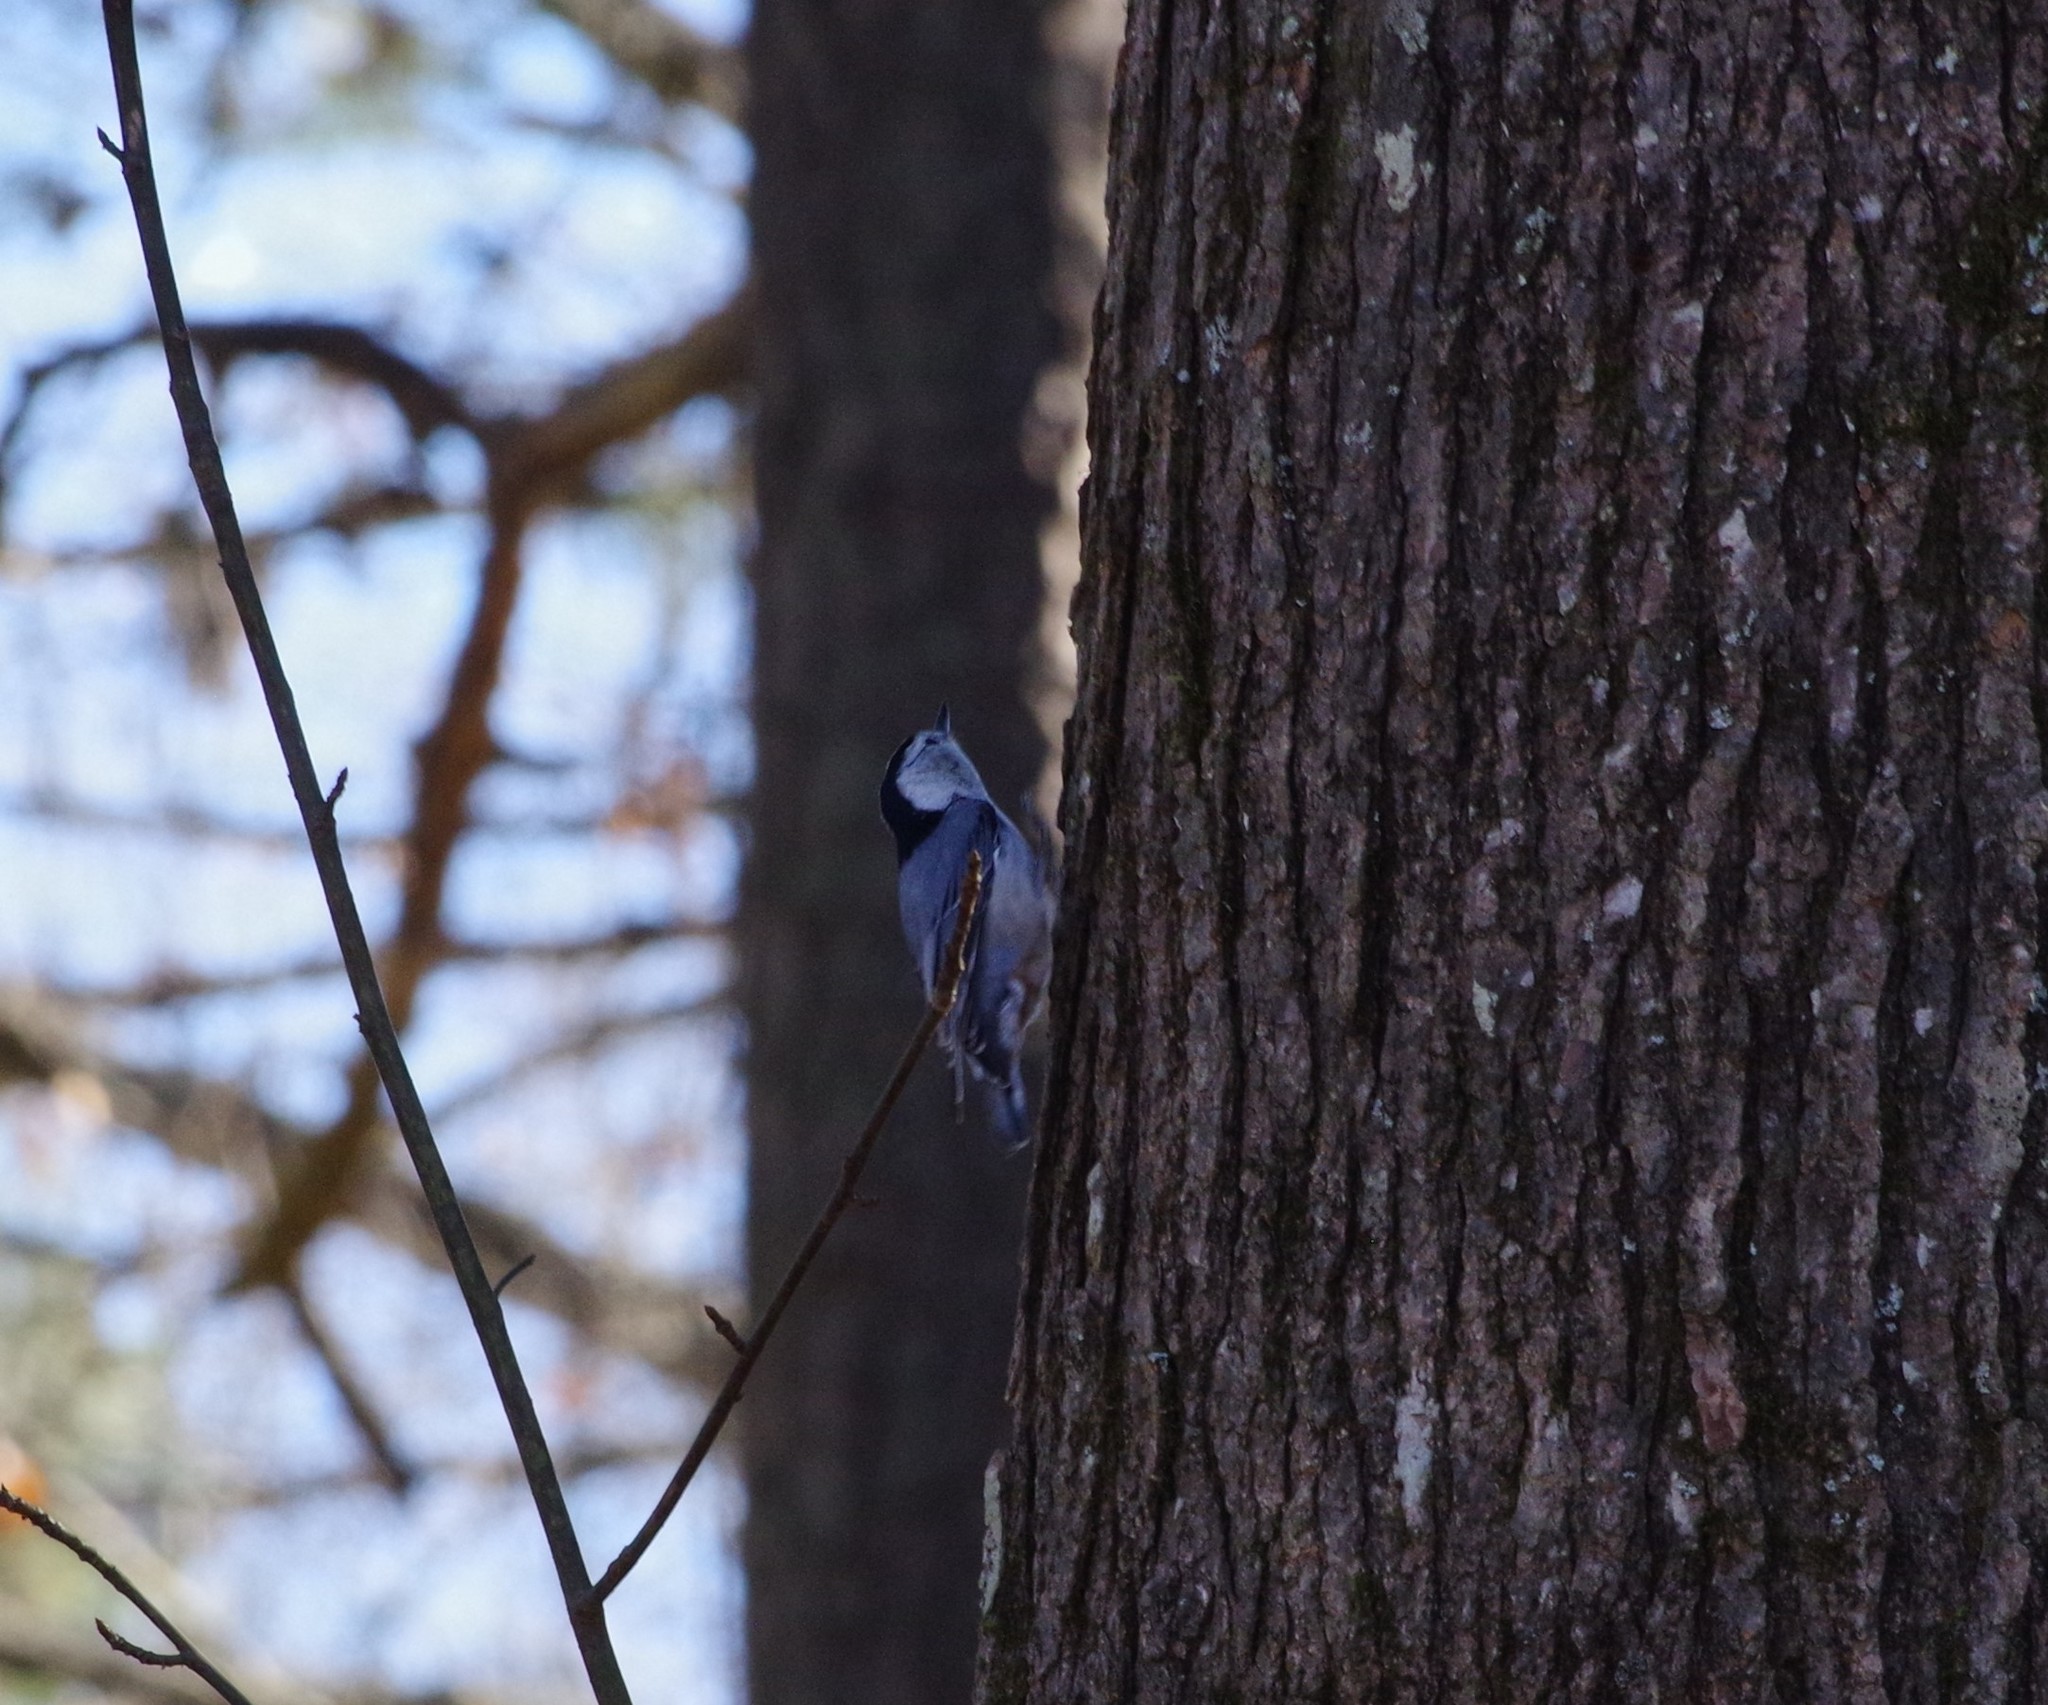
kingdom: Animalia
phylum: Chordata
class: Aves
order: Passeriformes
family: Sittidae
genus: Sitta
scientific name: Sitta carolinensis
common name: White-breasted nuthatch
